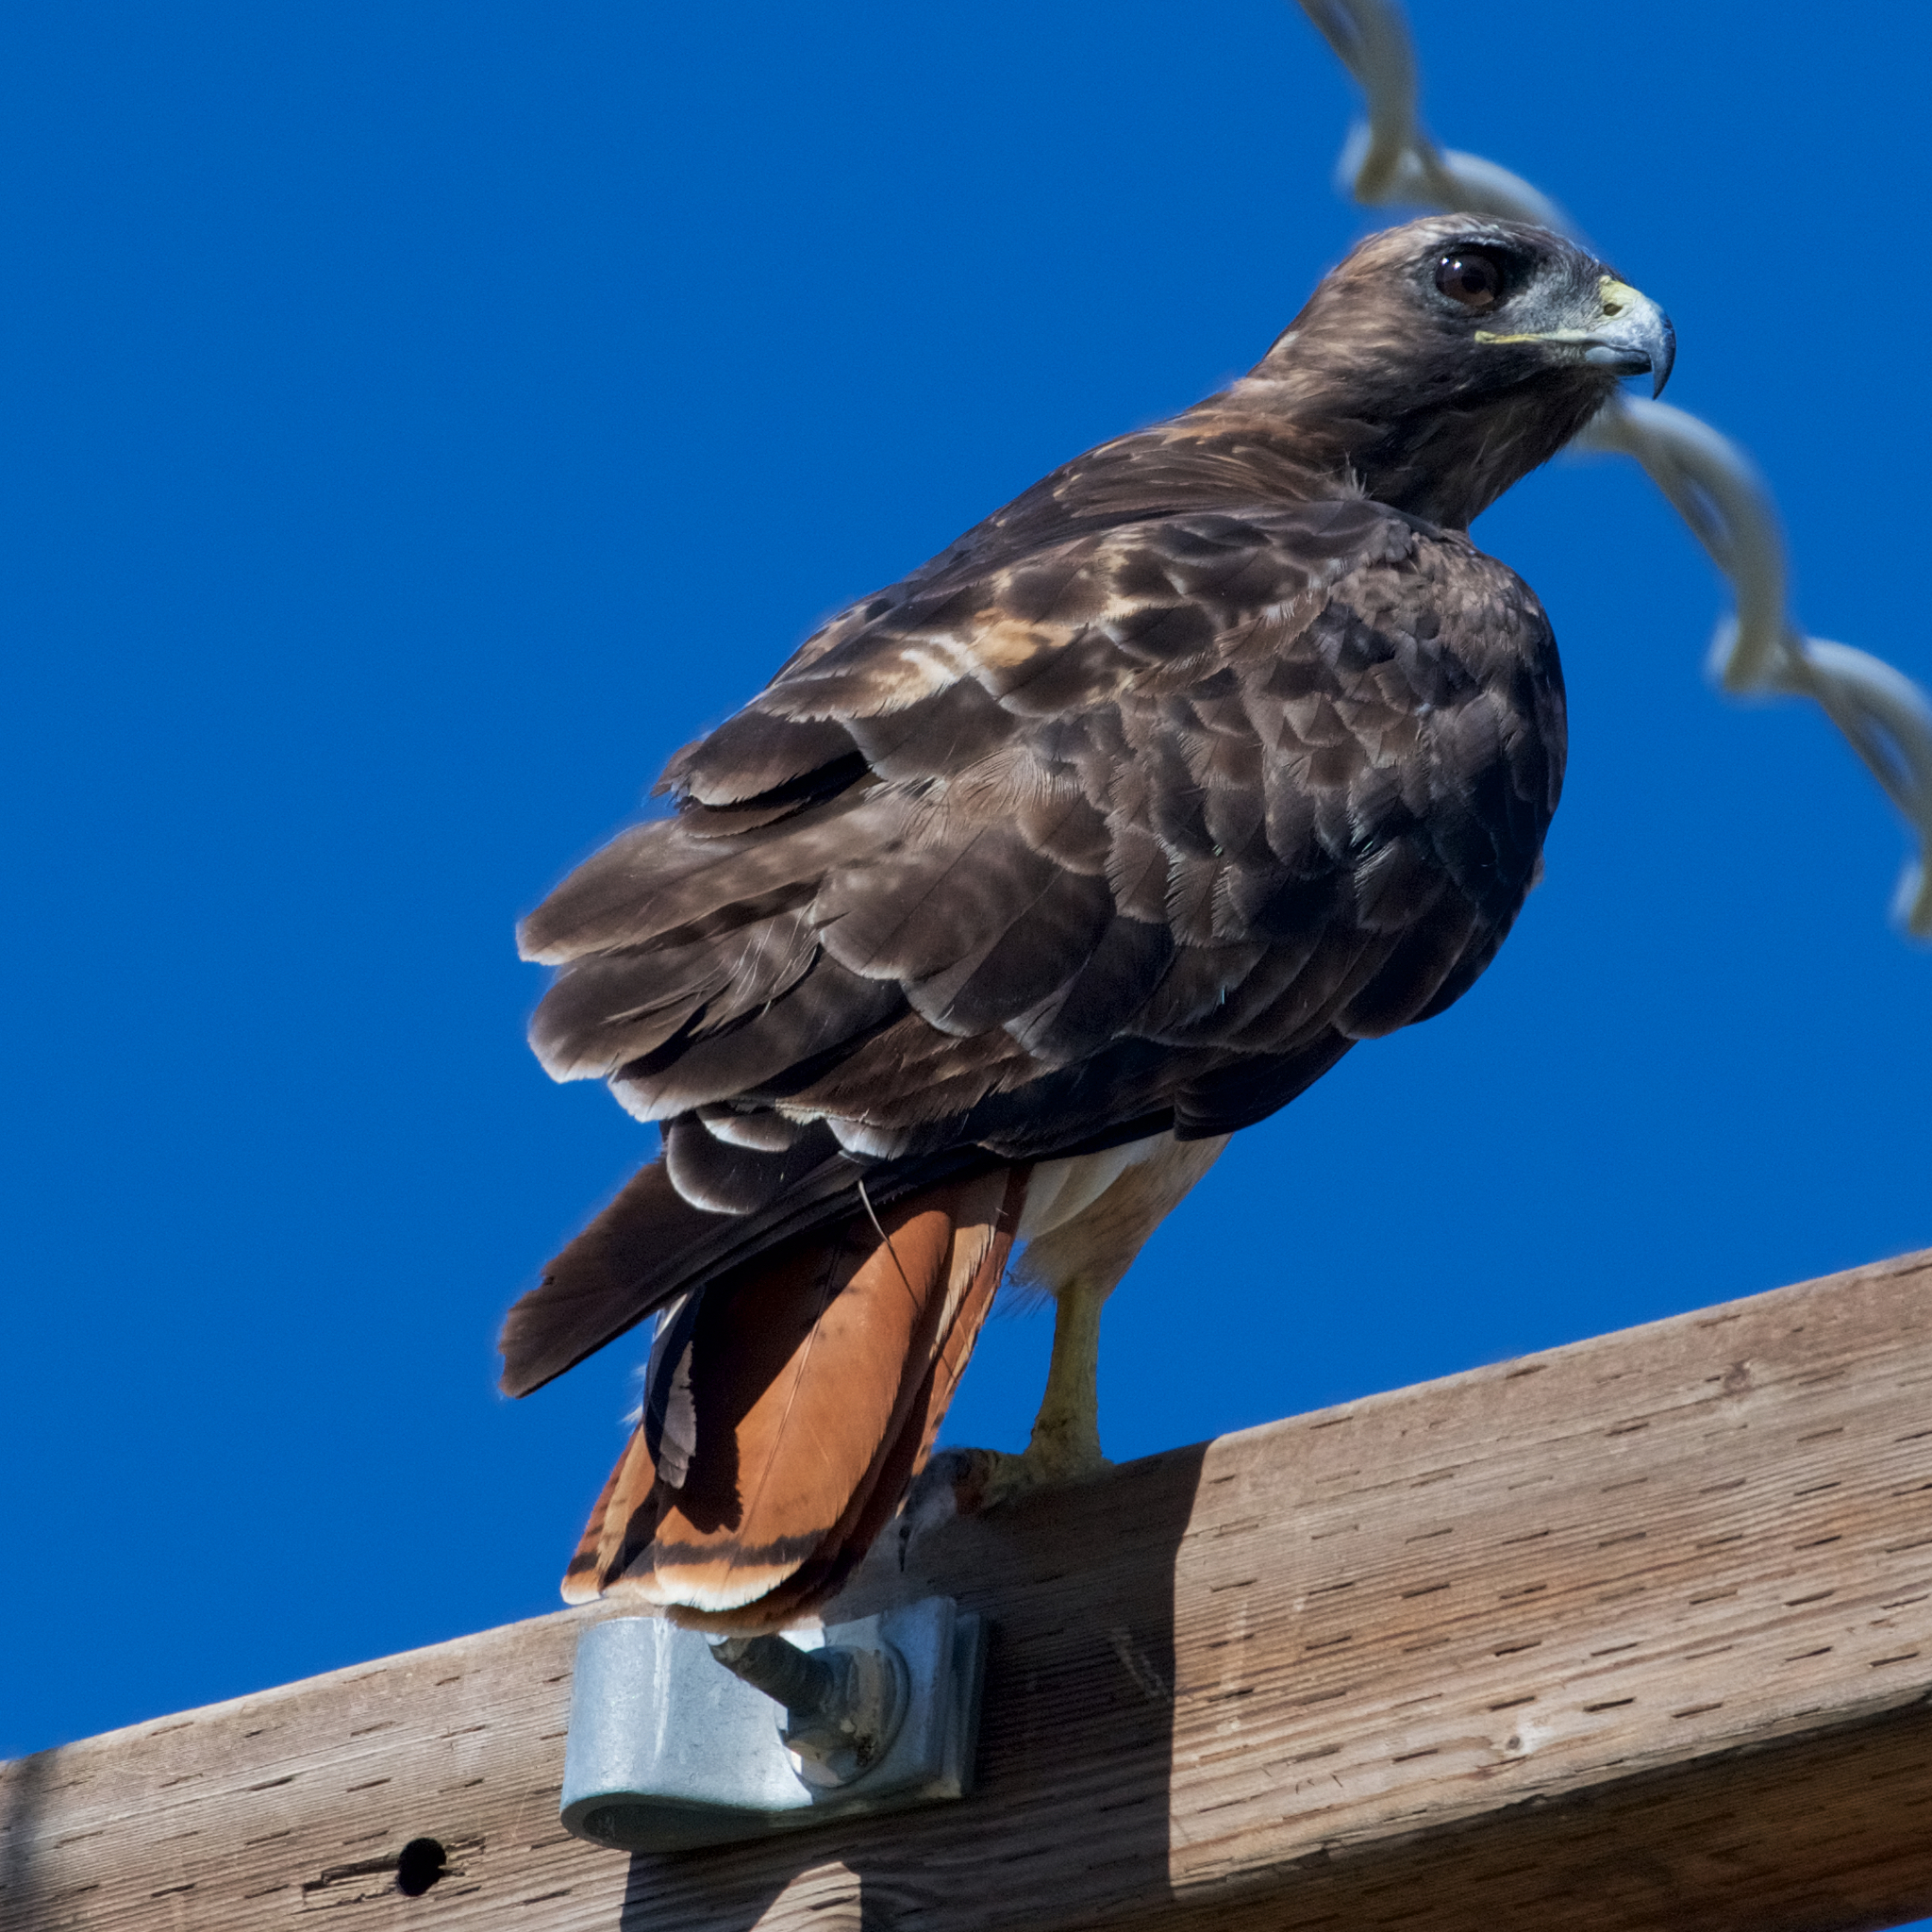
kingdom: Animalia
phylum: Chordata
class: Aves
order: Accipitriformes
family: Accipitridae
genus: Buteo
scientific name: Buteo jamaicensis
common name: Red-tailed hawk
